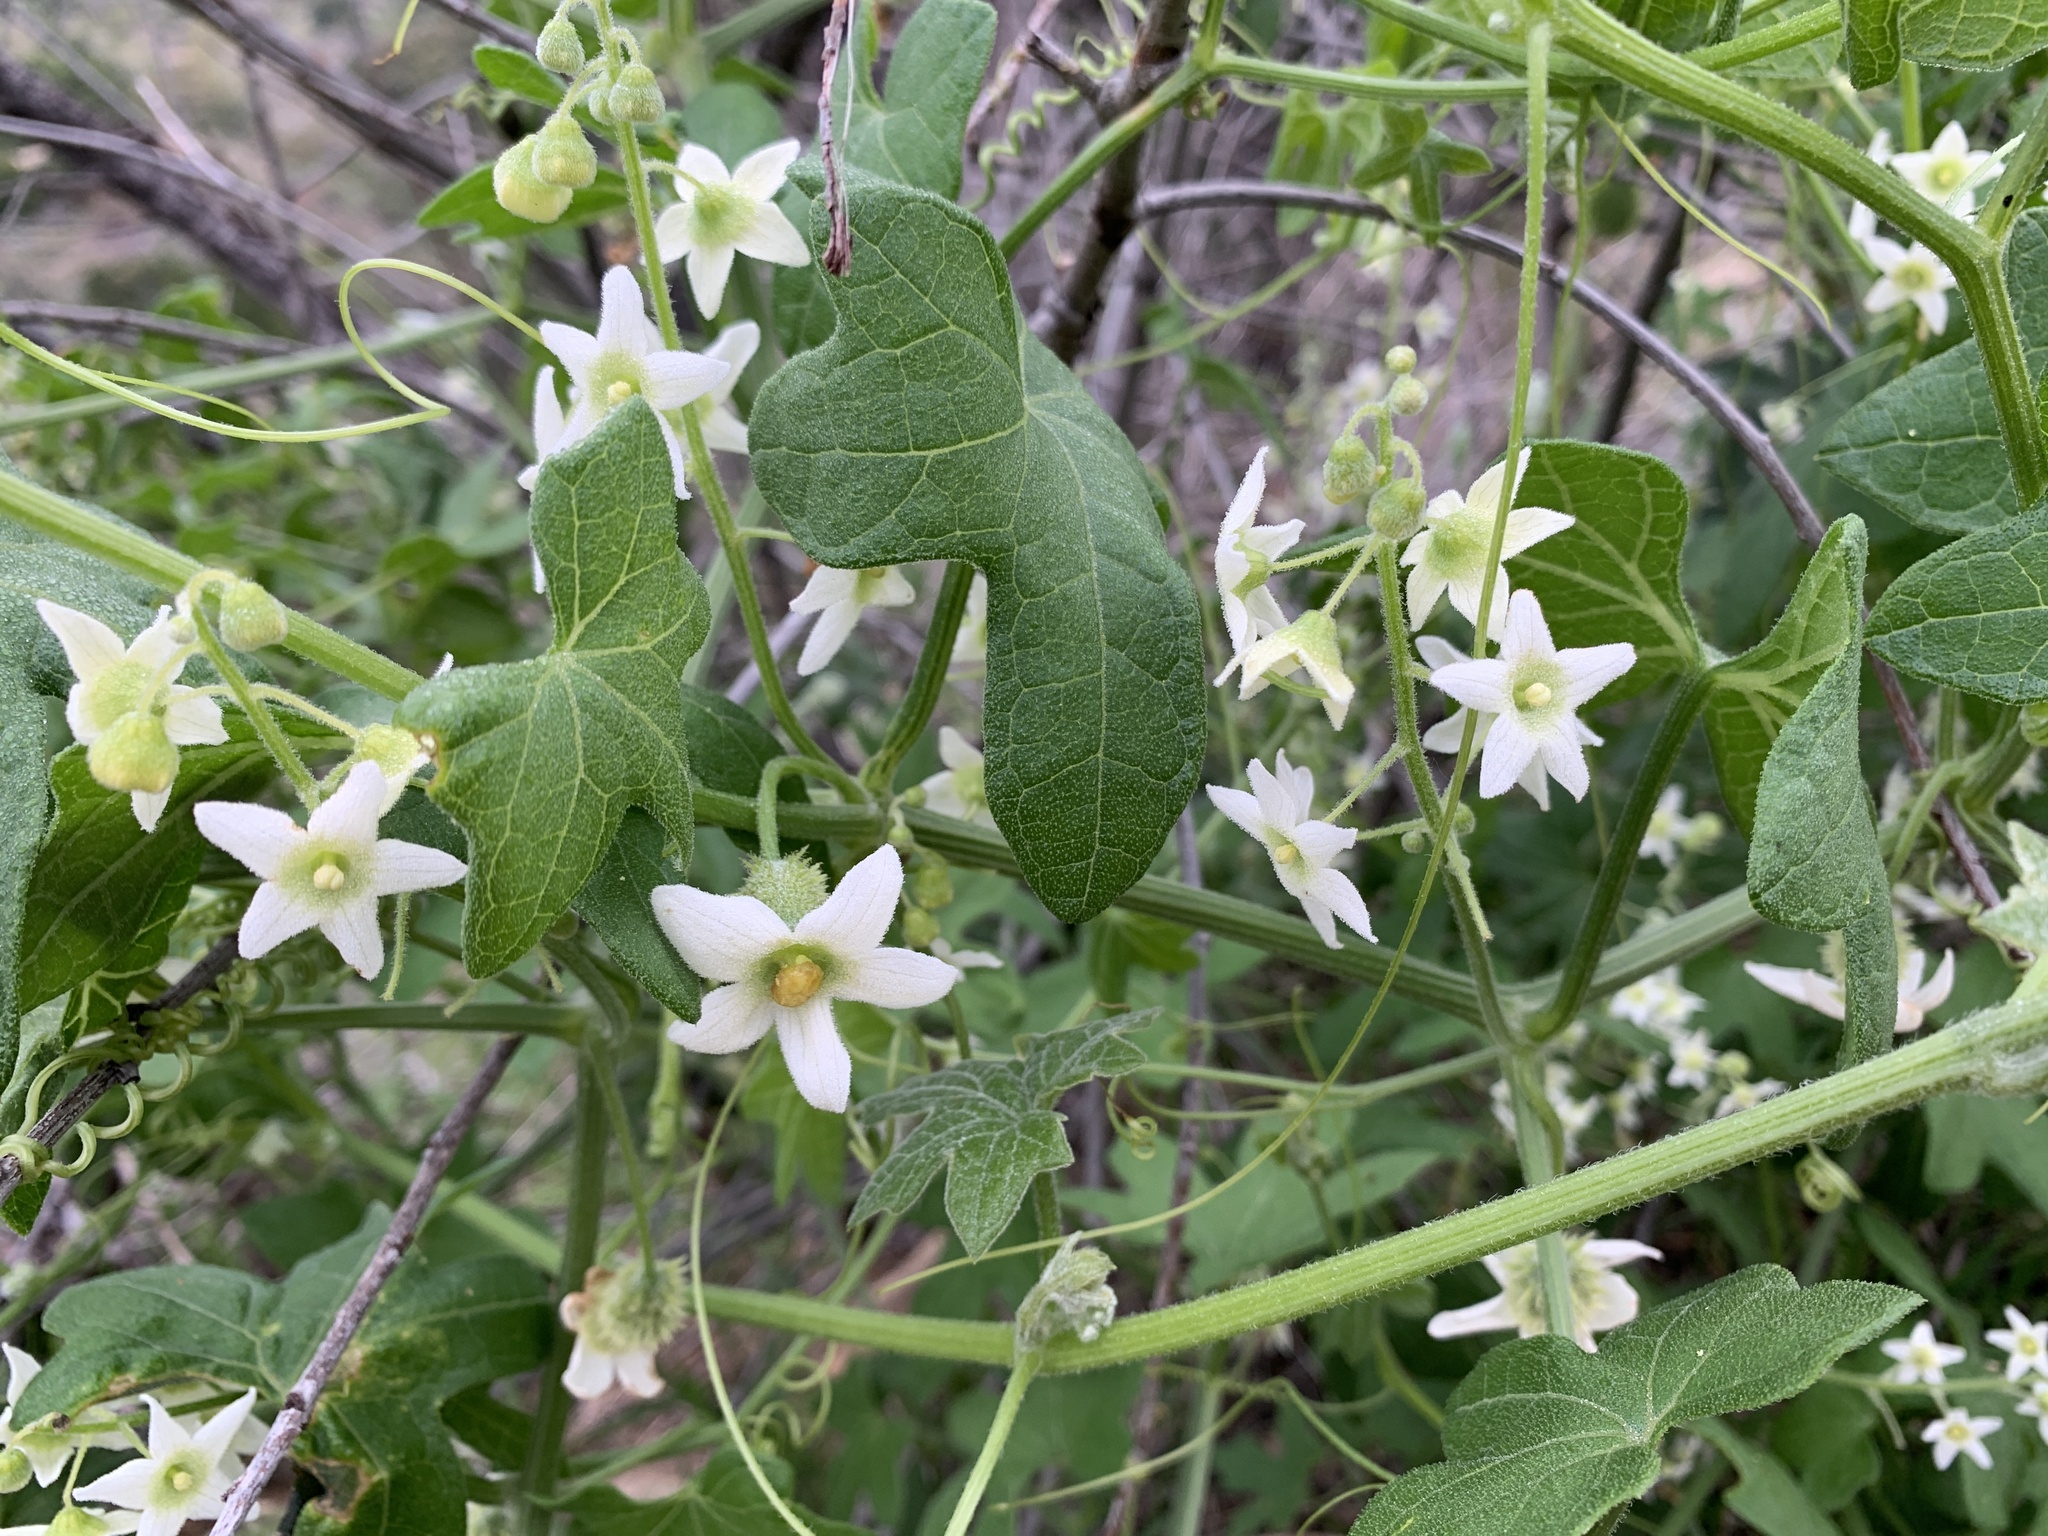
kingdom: Plantae
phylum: Tracheophyta
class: Magnoliopsida
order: Cucurbitales
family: Cucurbitaceae
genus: Marah
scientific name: Marah macrocarpa
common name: Cucamonga manroot
